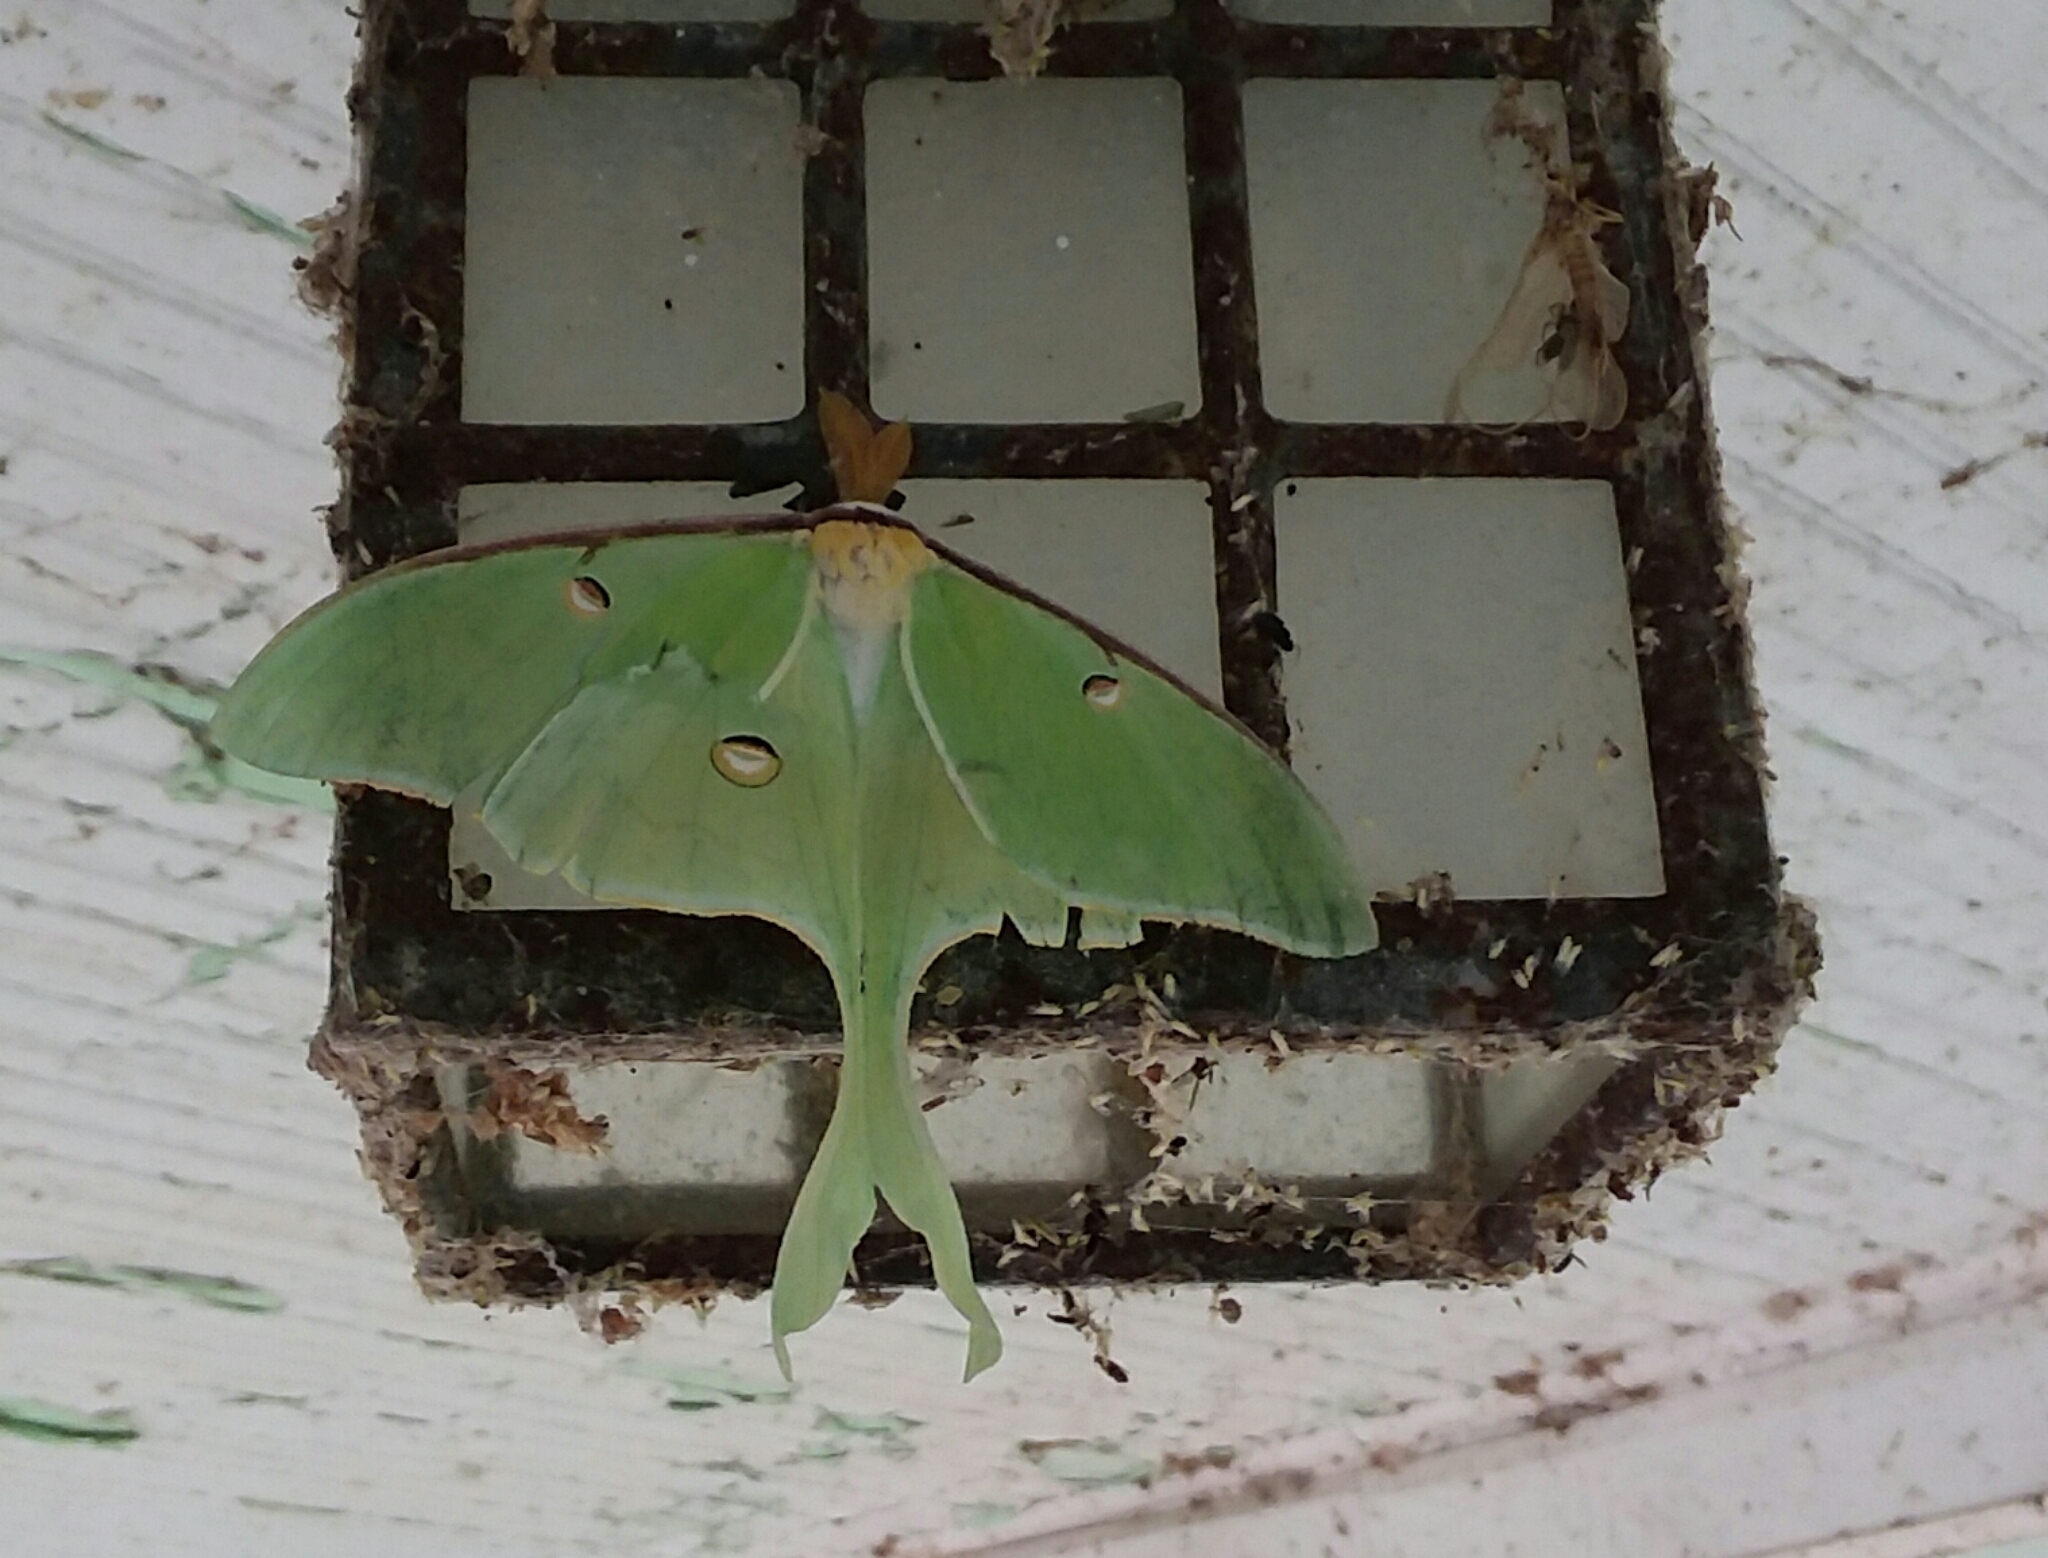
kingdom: Animalia
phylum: Arthropoda
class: Insecta
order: Lepidoptera
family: Saturniidae
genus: Actias
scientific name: Actias luna
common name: Luna moth
